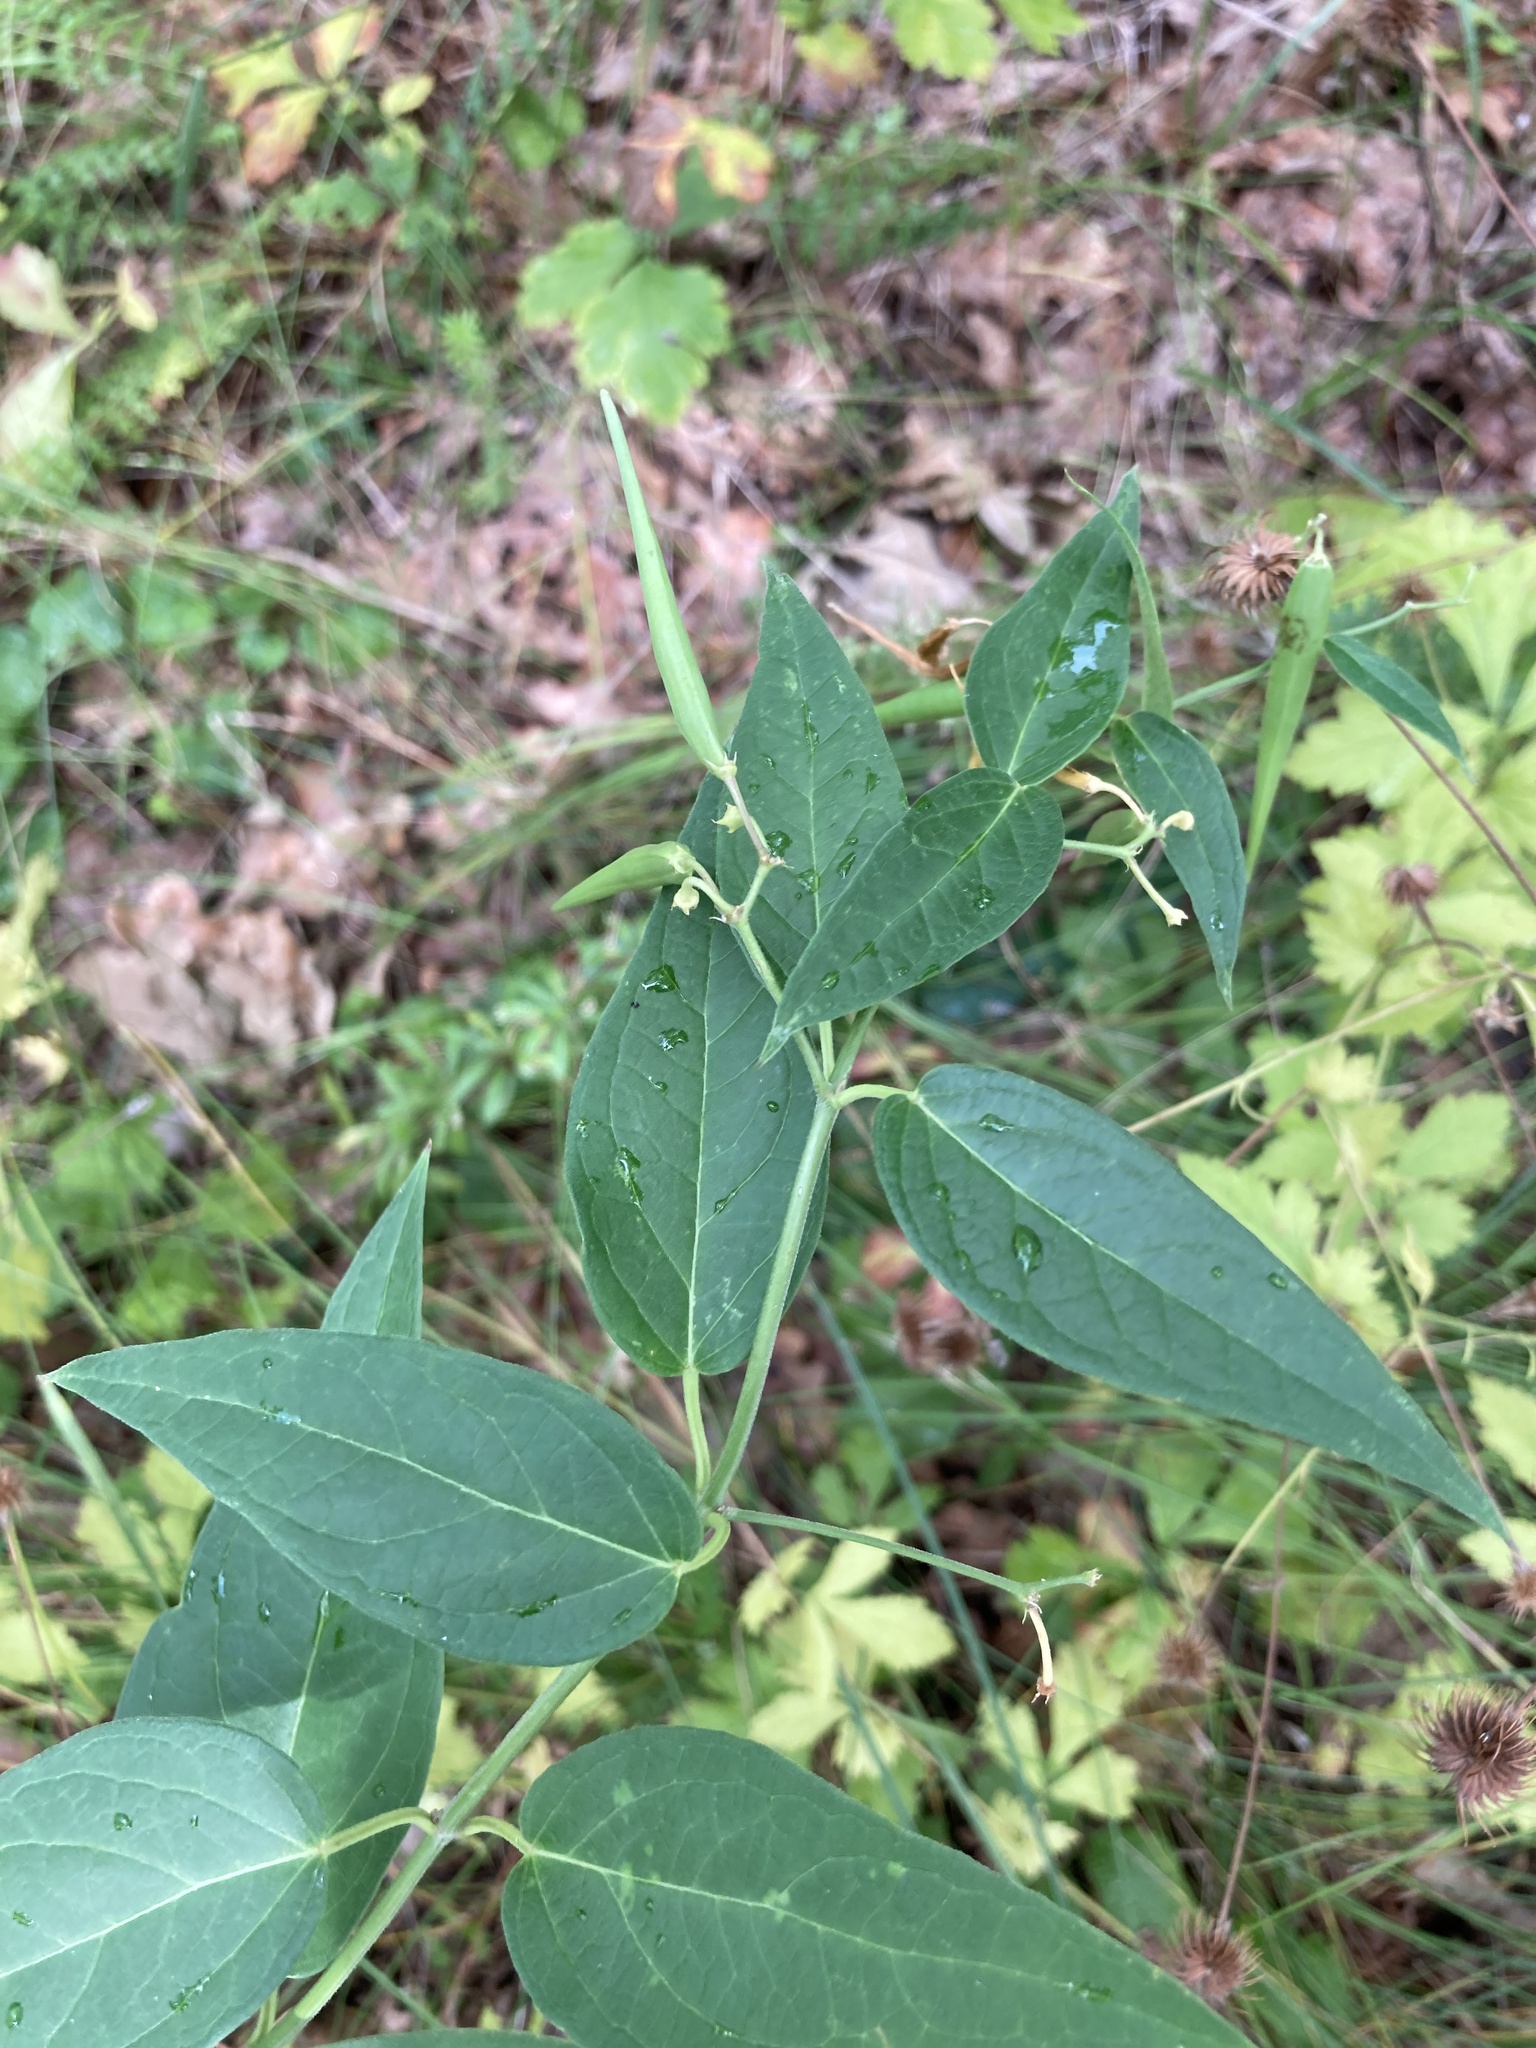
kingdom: Plantae
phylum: Tracheophyta
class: Magnoliopsida
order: Gentianales
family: Apocynaceae
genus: Vincetoxicum
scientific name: Vincetoxicum hirundinaria
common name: White swallowwort
